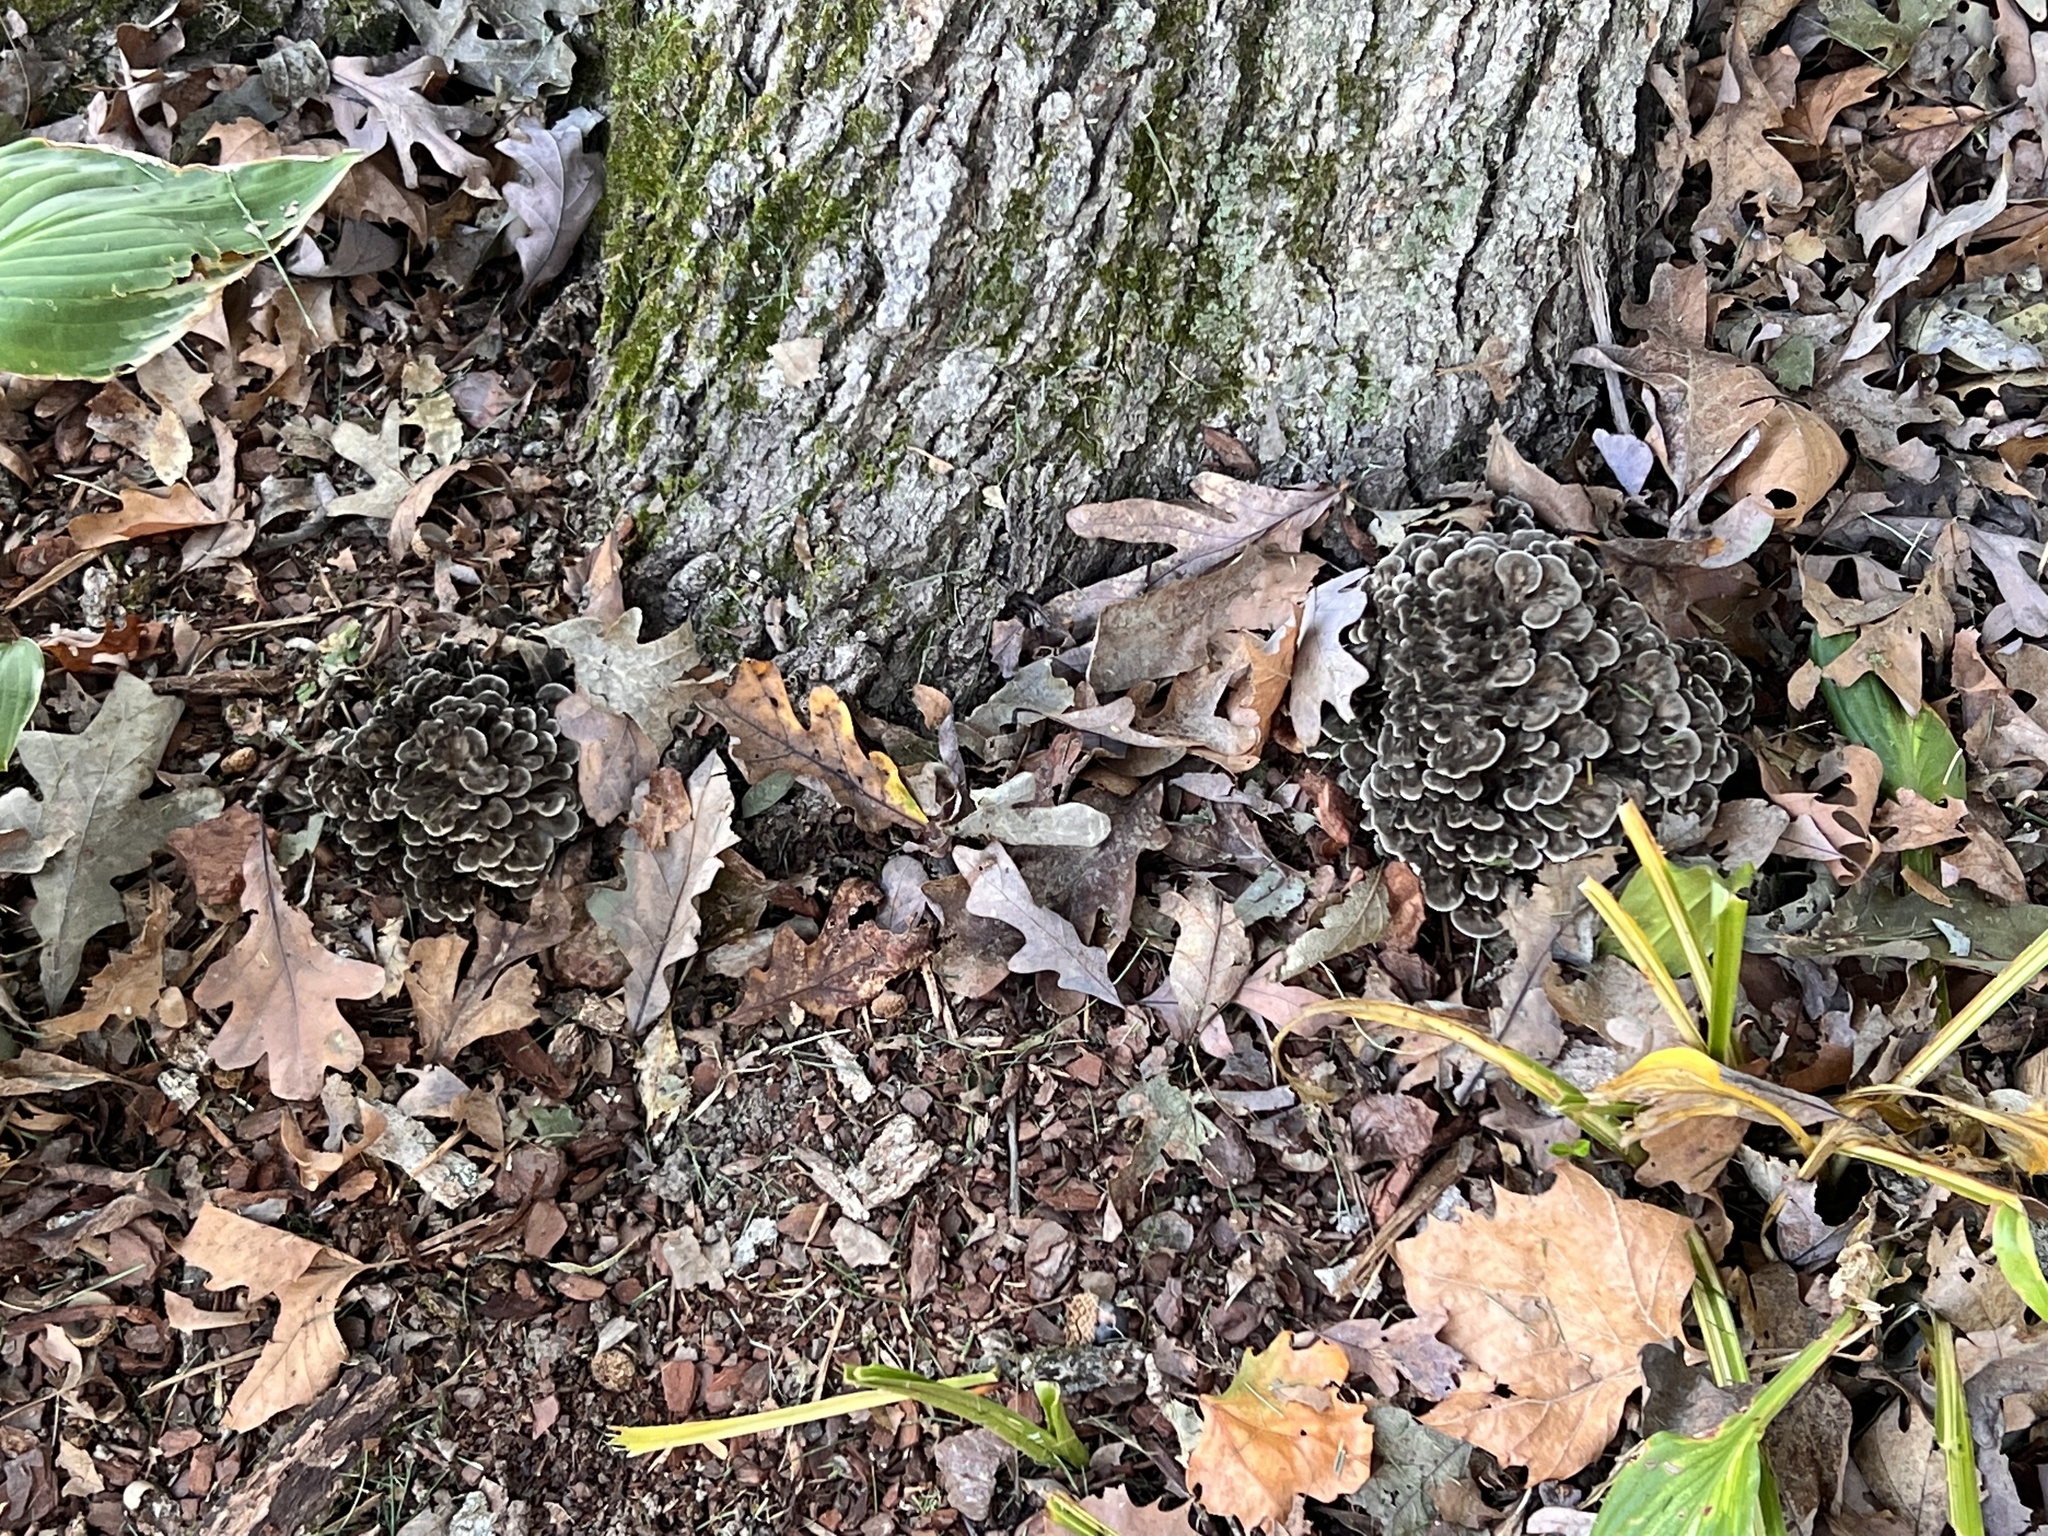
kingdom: Fungi
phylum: Basidiomycota
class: Agaricomycetes
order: Polyporales
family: Grifolaceae
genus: Grifola
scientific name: Grifola frondosa
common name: Hen of the woods
